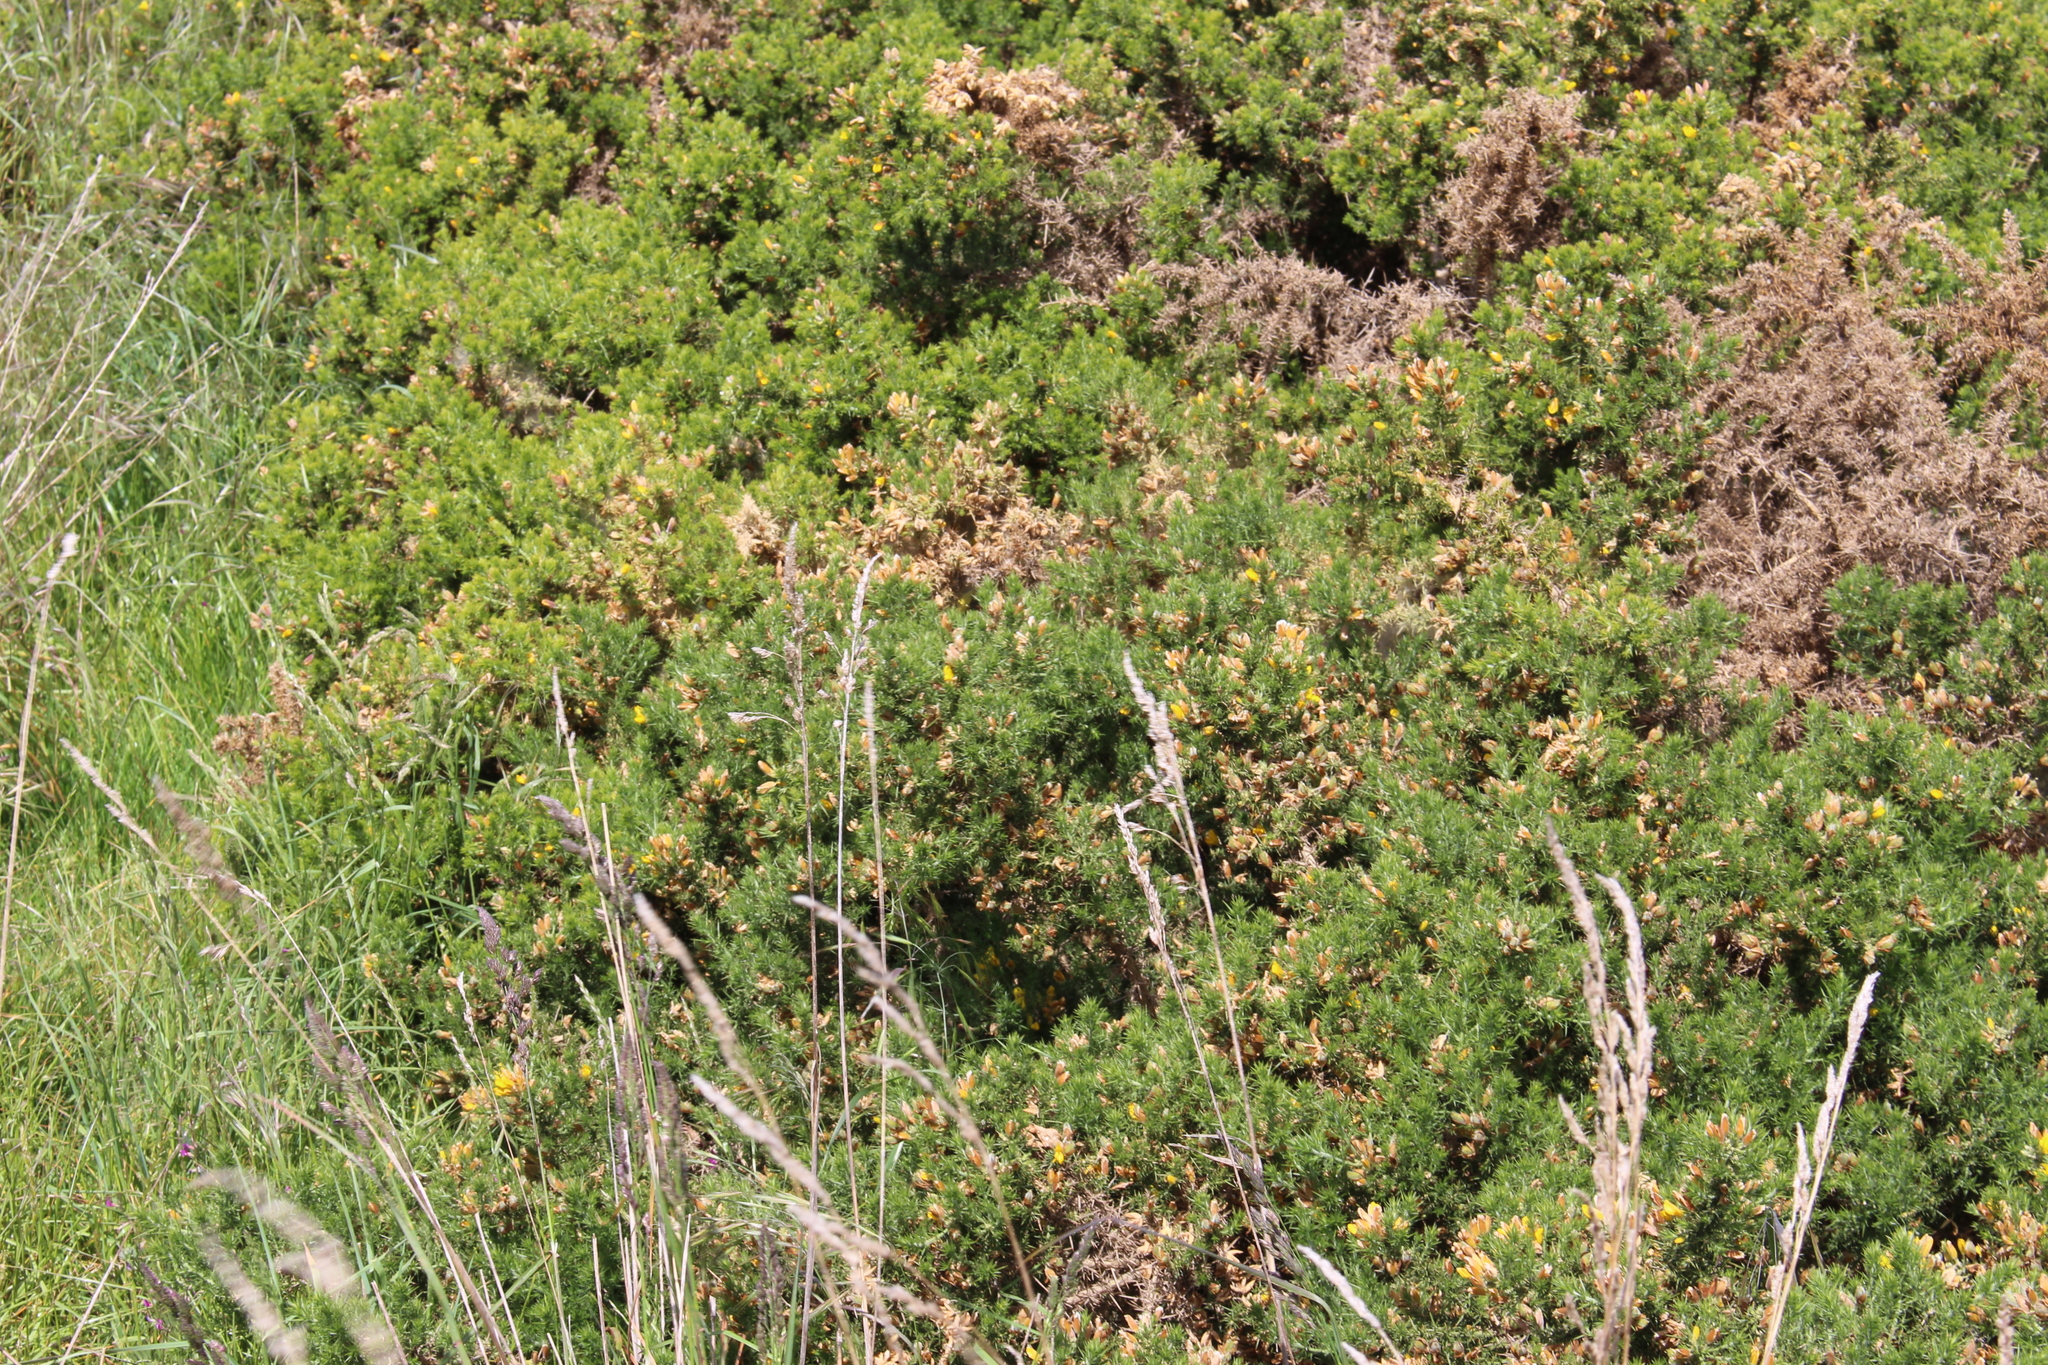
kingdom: Plantae
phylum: Tracheophyta
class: Magnoliopsida
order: Fabales
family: Fabaceae
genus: Ulex
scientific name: Ulex europaeus
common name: Common gorse
